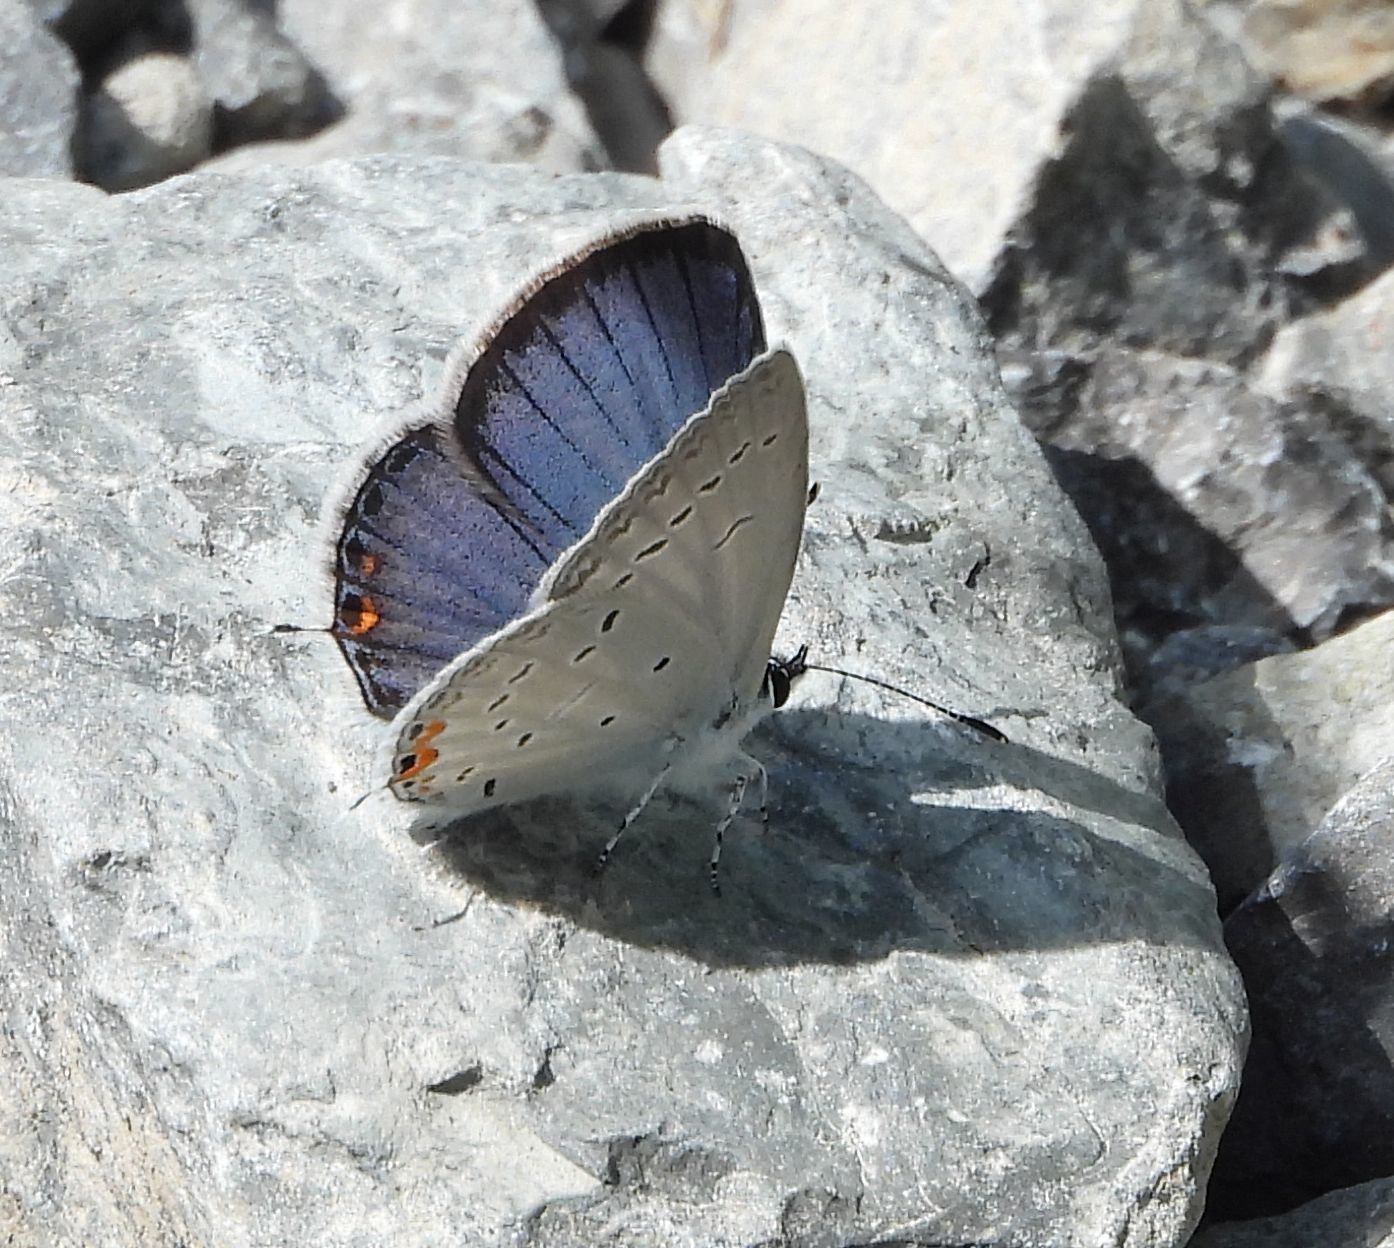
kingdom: Animalia
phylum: Arthropoda
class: Insecta
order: Lepidoptera
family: Lycaenidae
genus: Elkalyce
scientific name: Elkalyce comyntas
